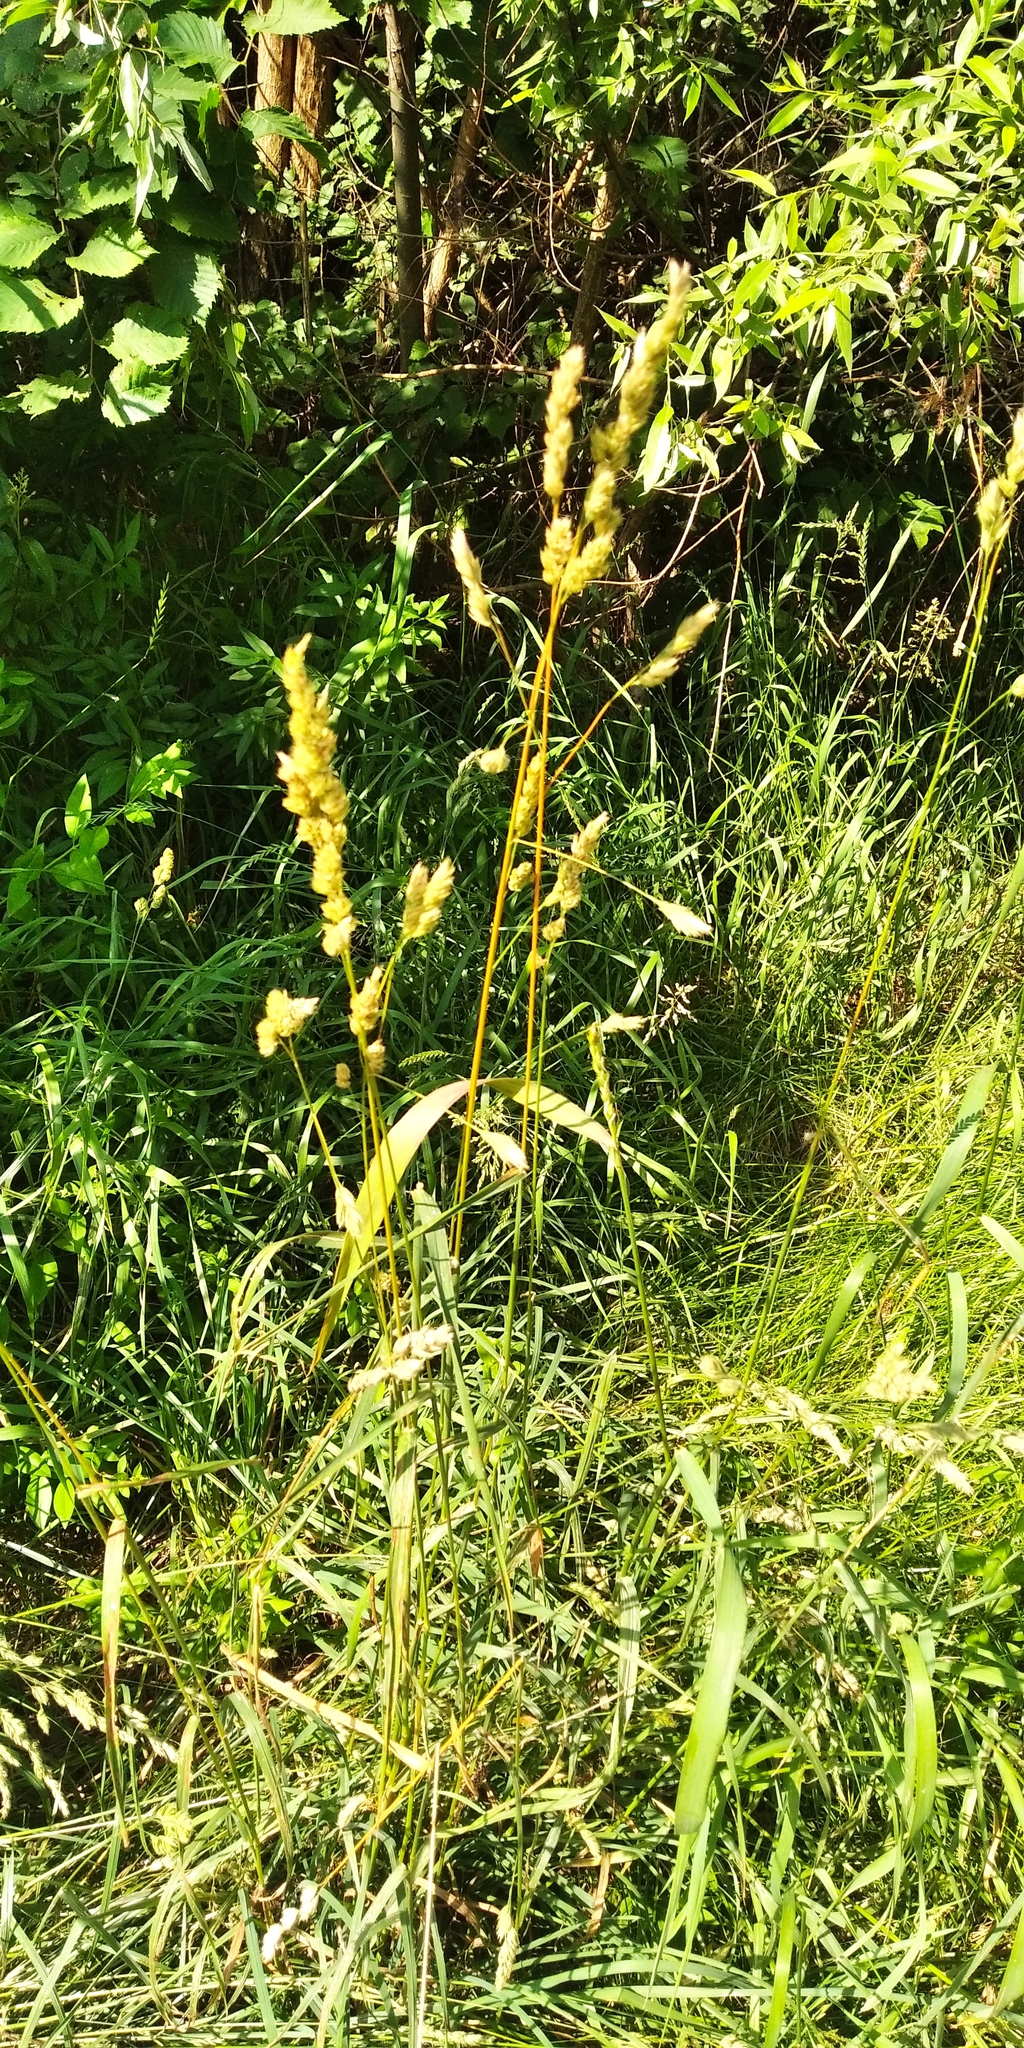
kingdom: Plantae
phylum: Tracheophyta
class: Liliopsida
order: Poales
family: Poaceae
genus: Dactylis
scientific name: Dactylis glomerata
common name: Orchardgrass
